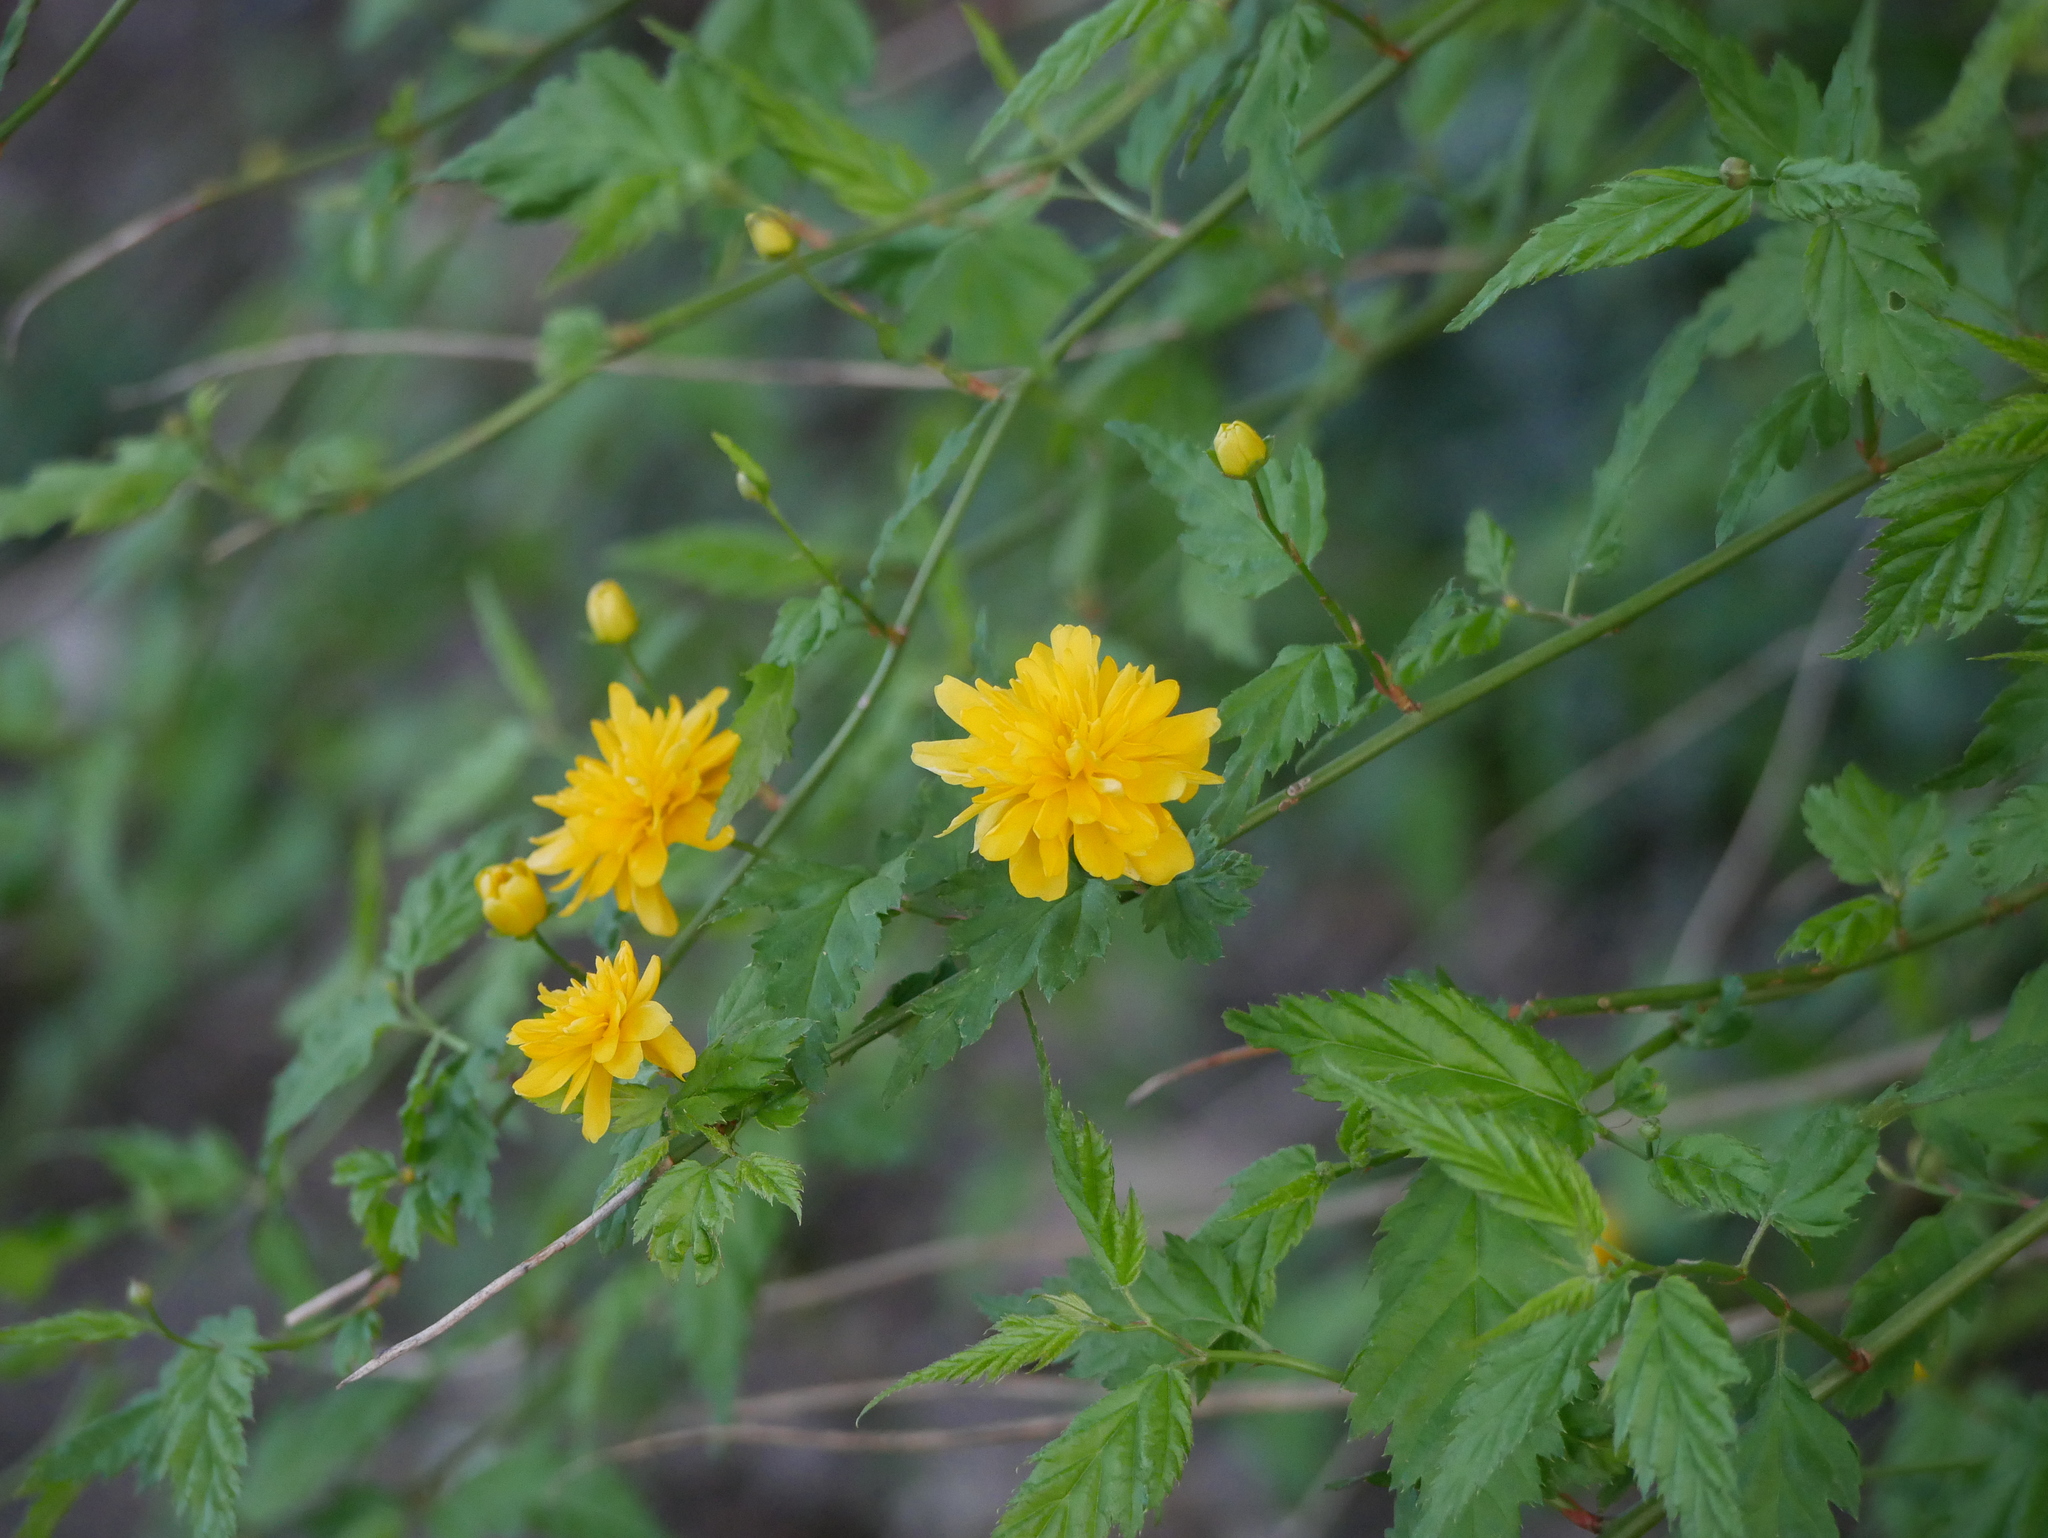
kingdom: Plantae
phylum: Tracheophyta
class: Magnoliopsida
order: Rosales
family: Rosaceae
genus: Kerria
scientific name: Kerria japonica
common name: Japanese kerria
